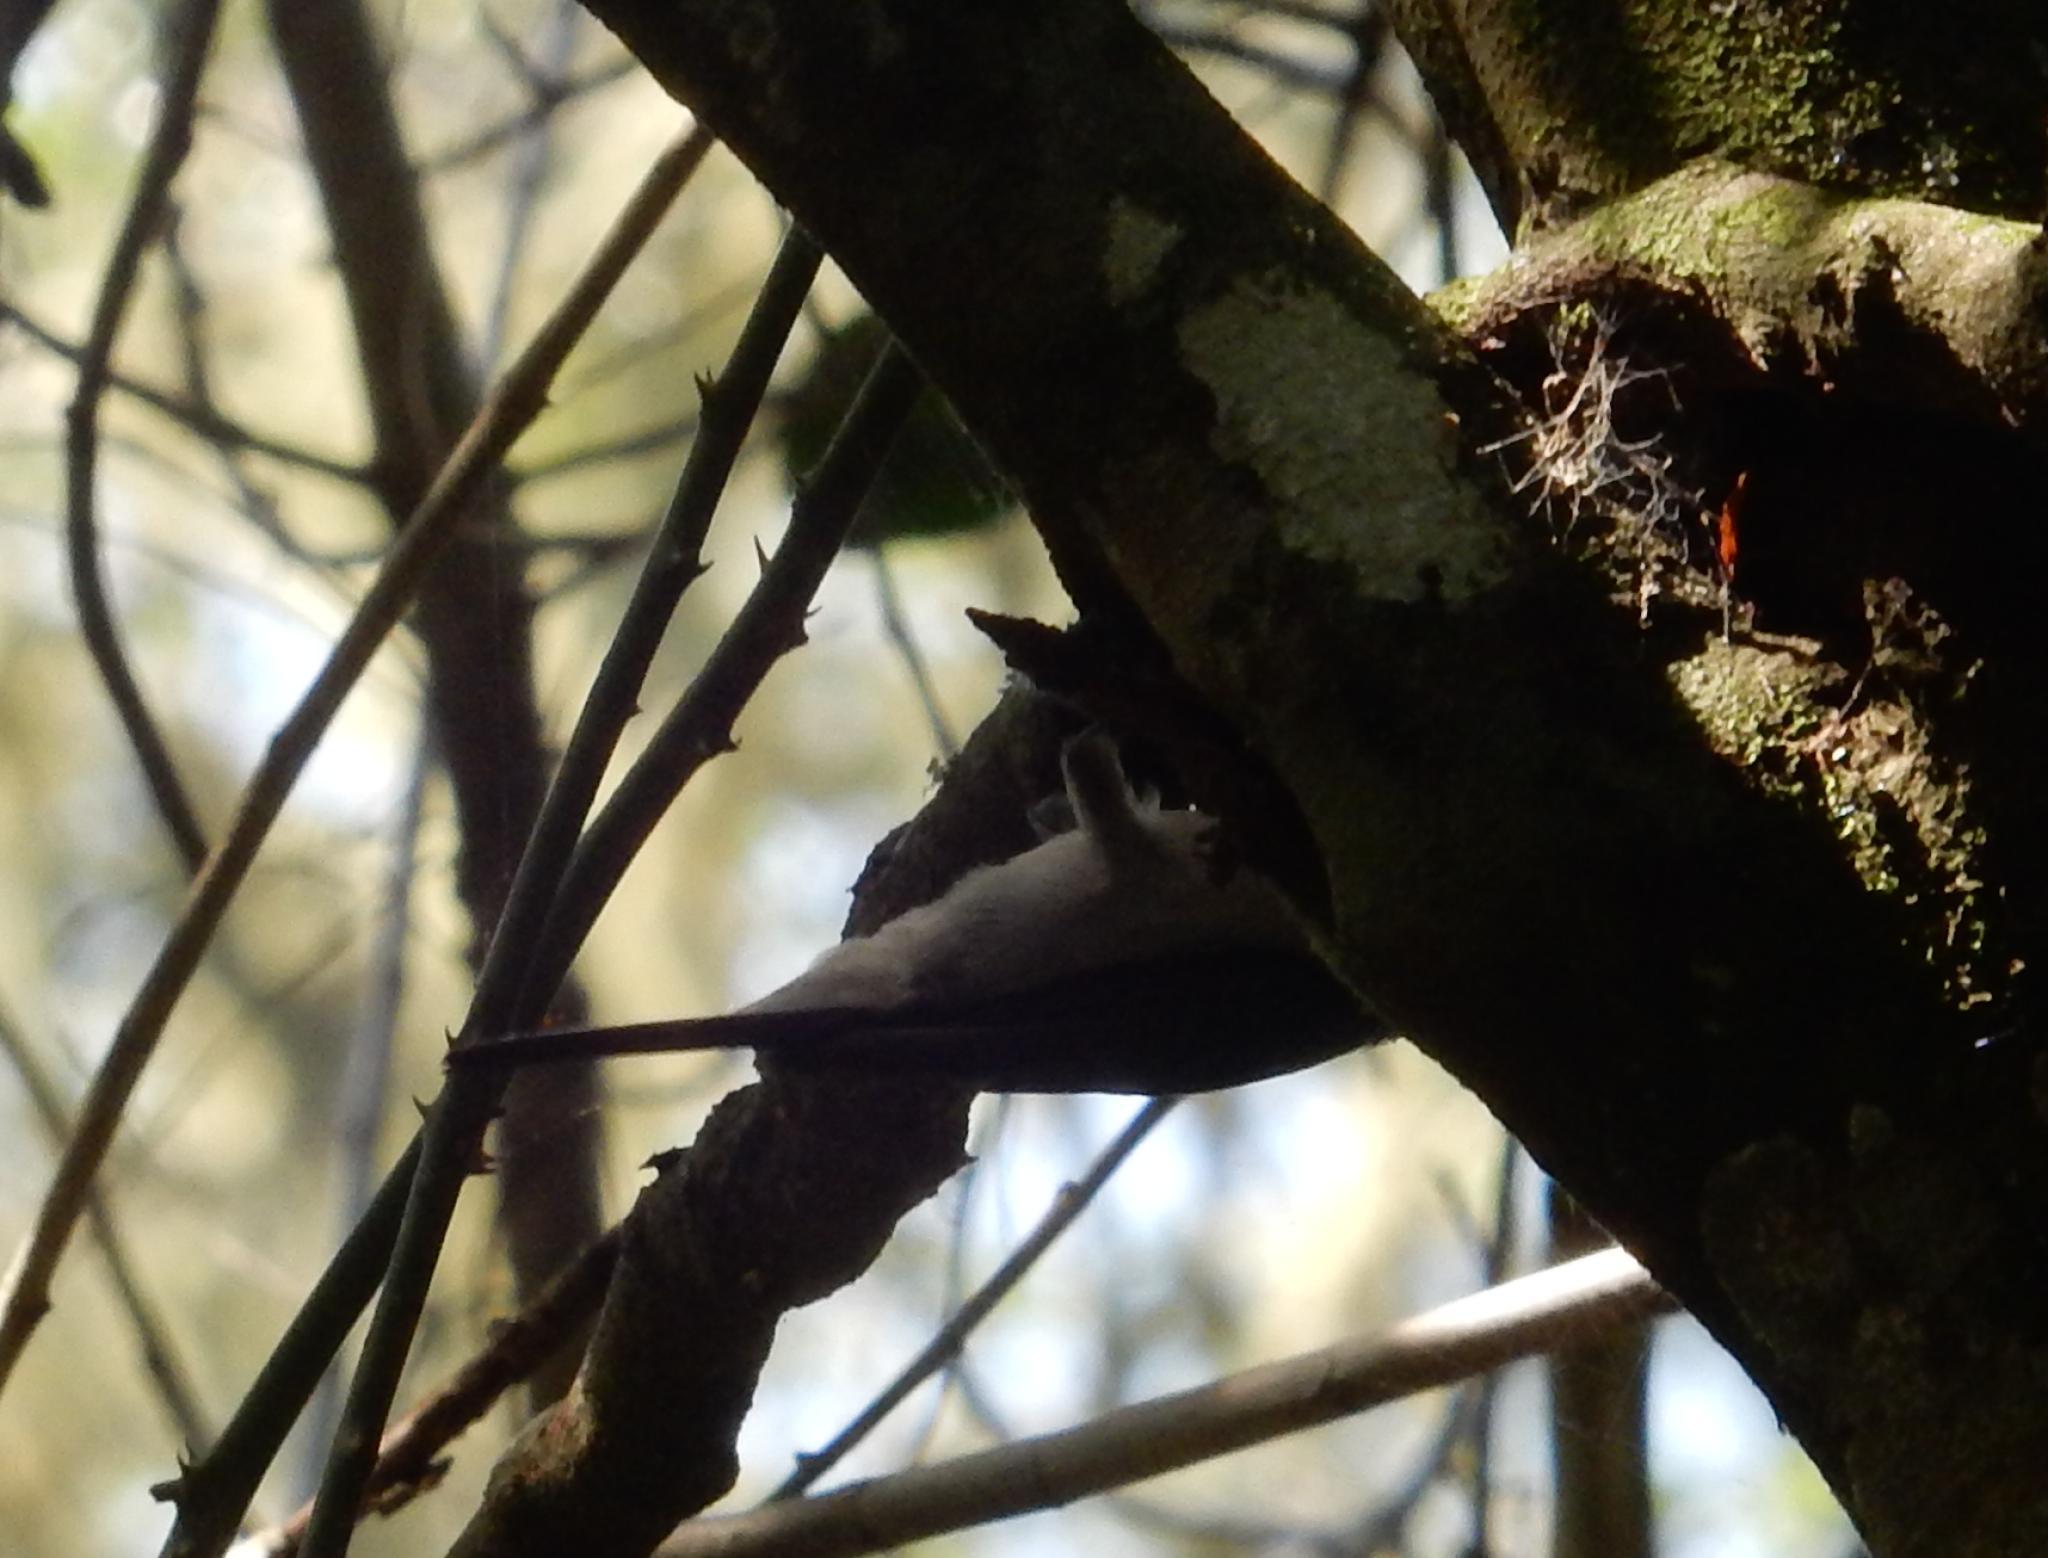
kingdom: Animalia
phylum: Chordata
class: Aves
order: Passeriformes
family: Nectariniidae
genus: Cyanomitra
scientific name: Cyanomitra veroxii
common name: Grey sunbird
